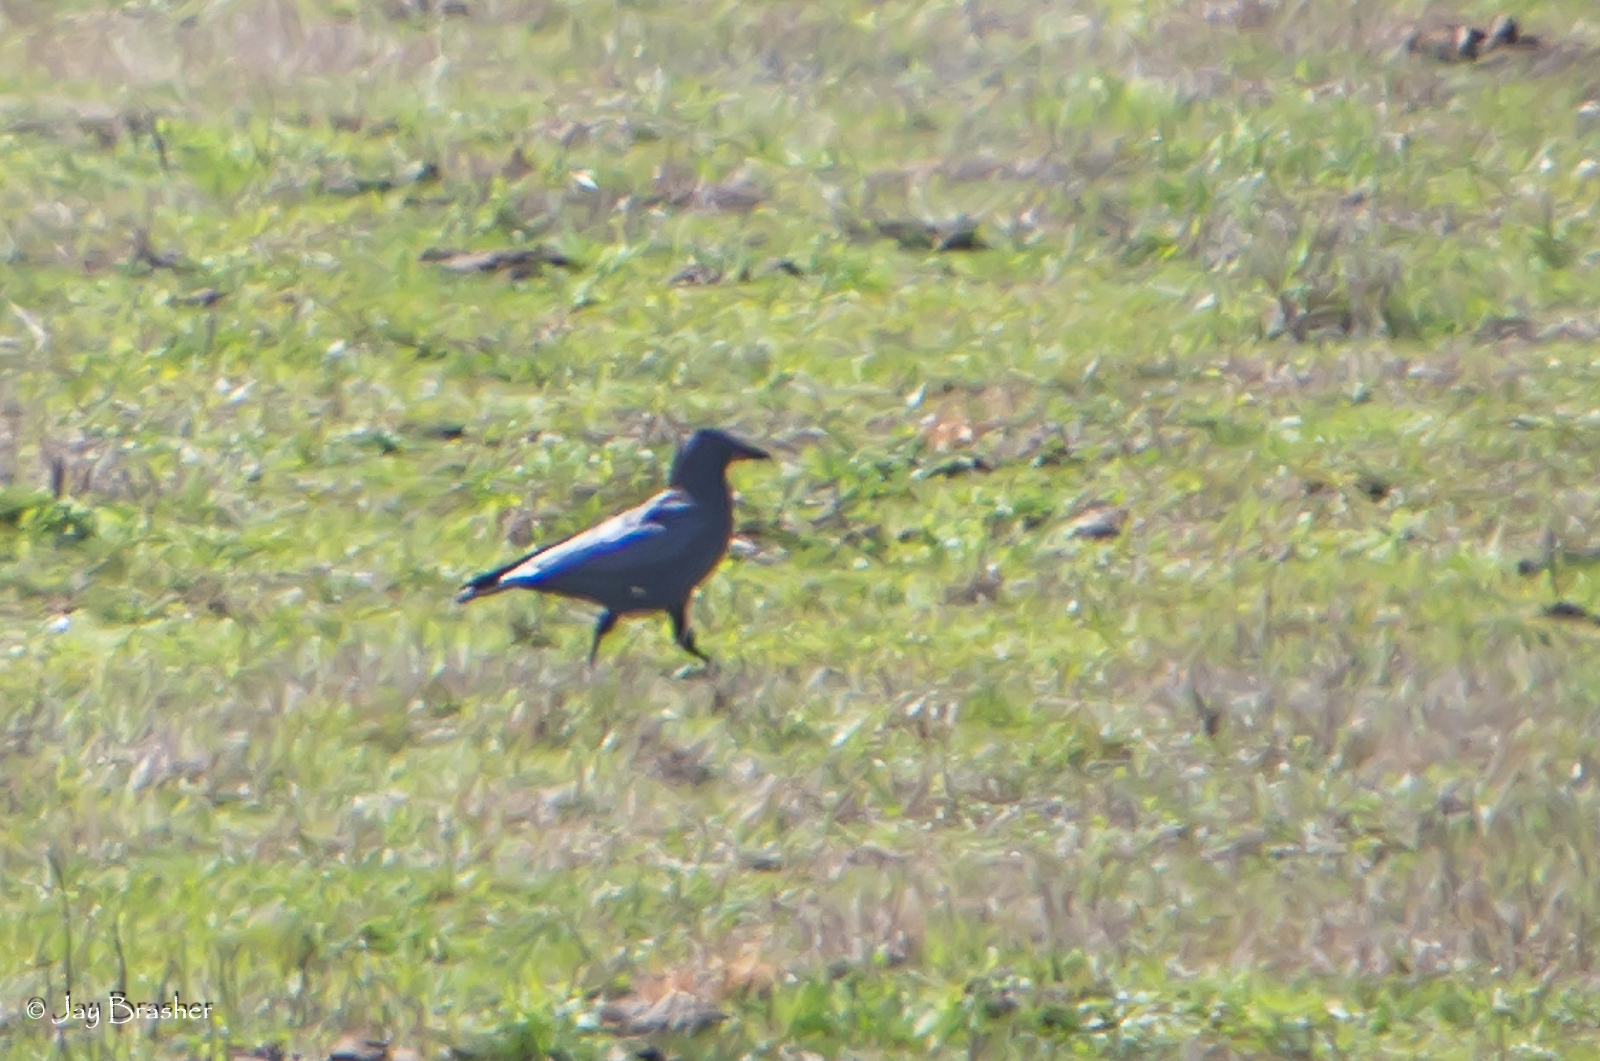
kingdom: Animalia
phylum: Chordata
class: Aves
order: Passeriformes
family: Corvidae
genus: Corvus
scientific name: Corvus brachyrhynchos
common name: American crow
